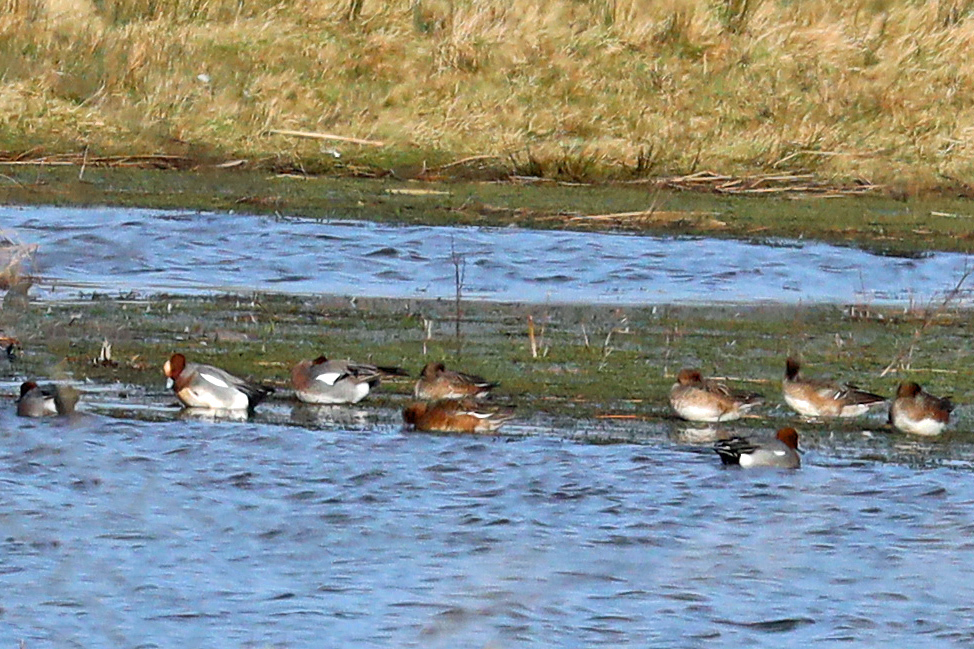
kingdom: Animalia
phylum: Chordata
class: Aves
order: Anseriformes
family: Anatidae
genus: Mareca
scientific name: Mareca penelope
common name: Eurasian wigeon
